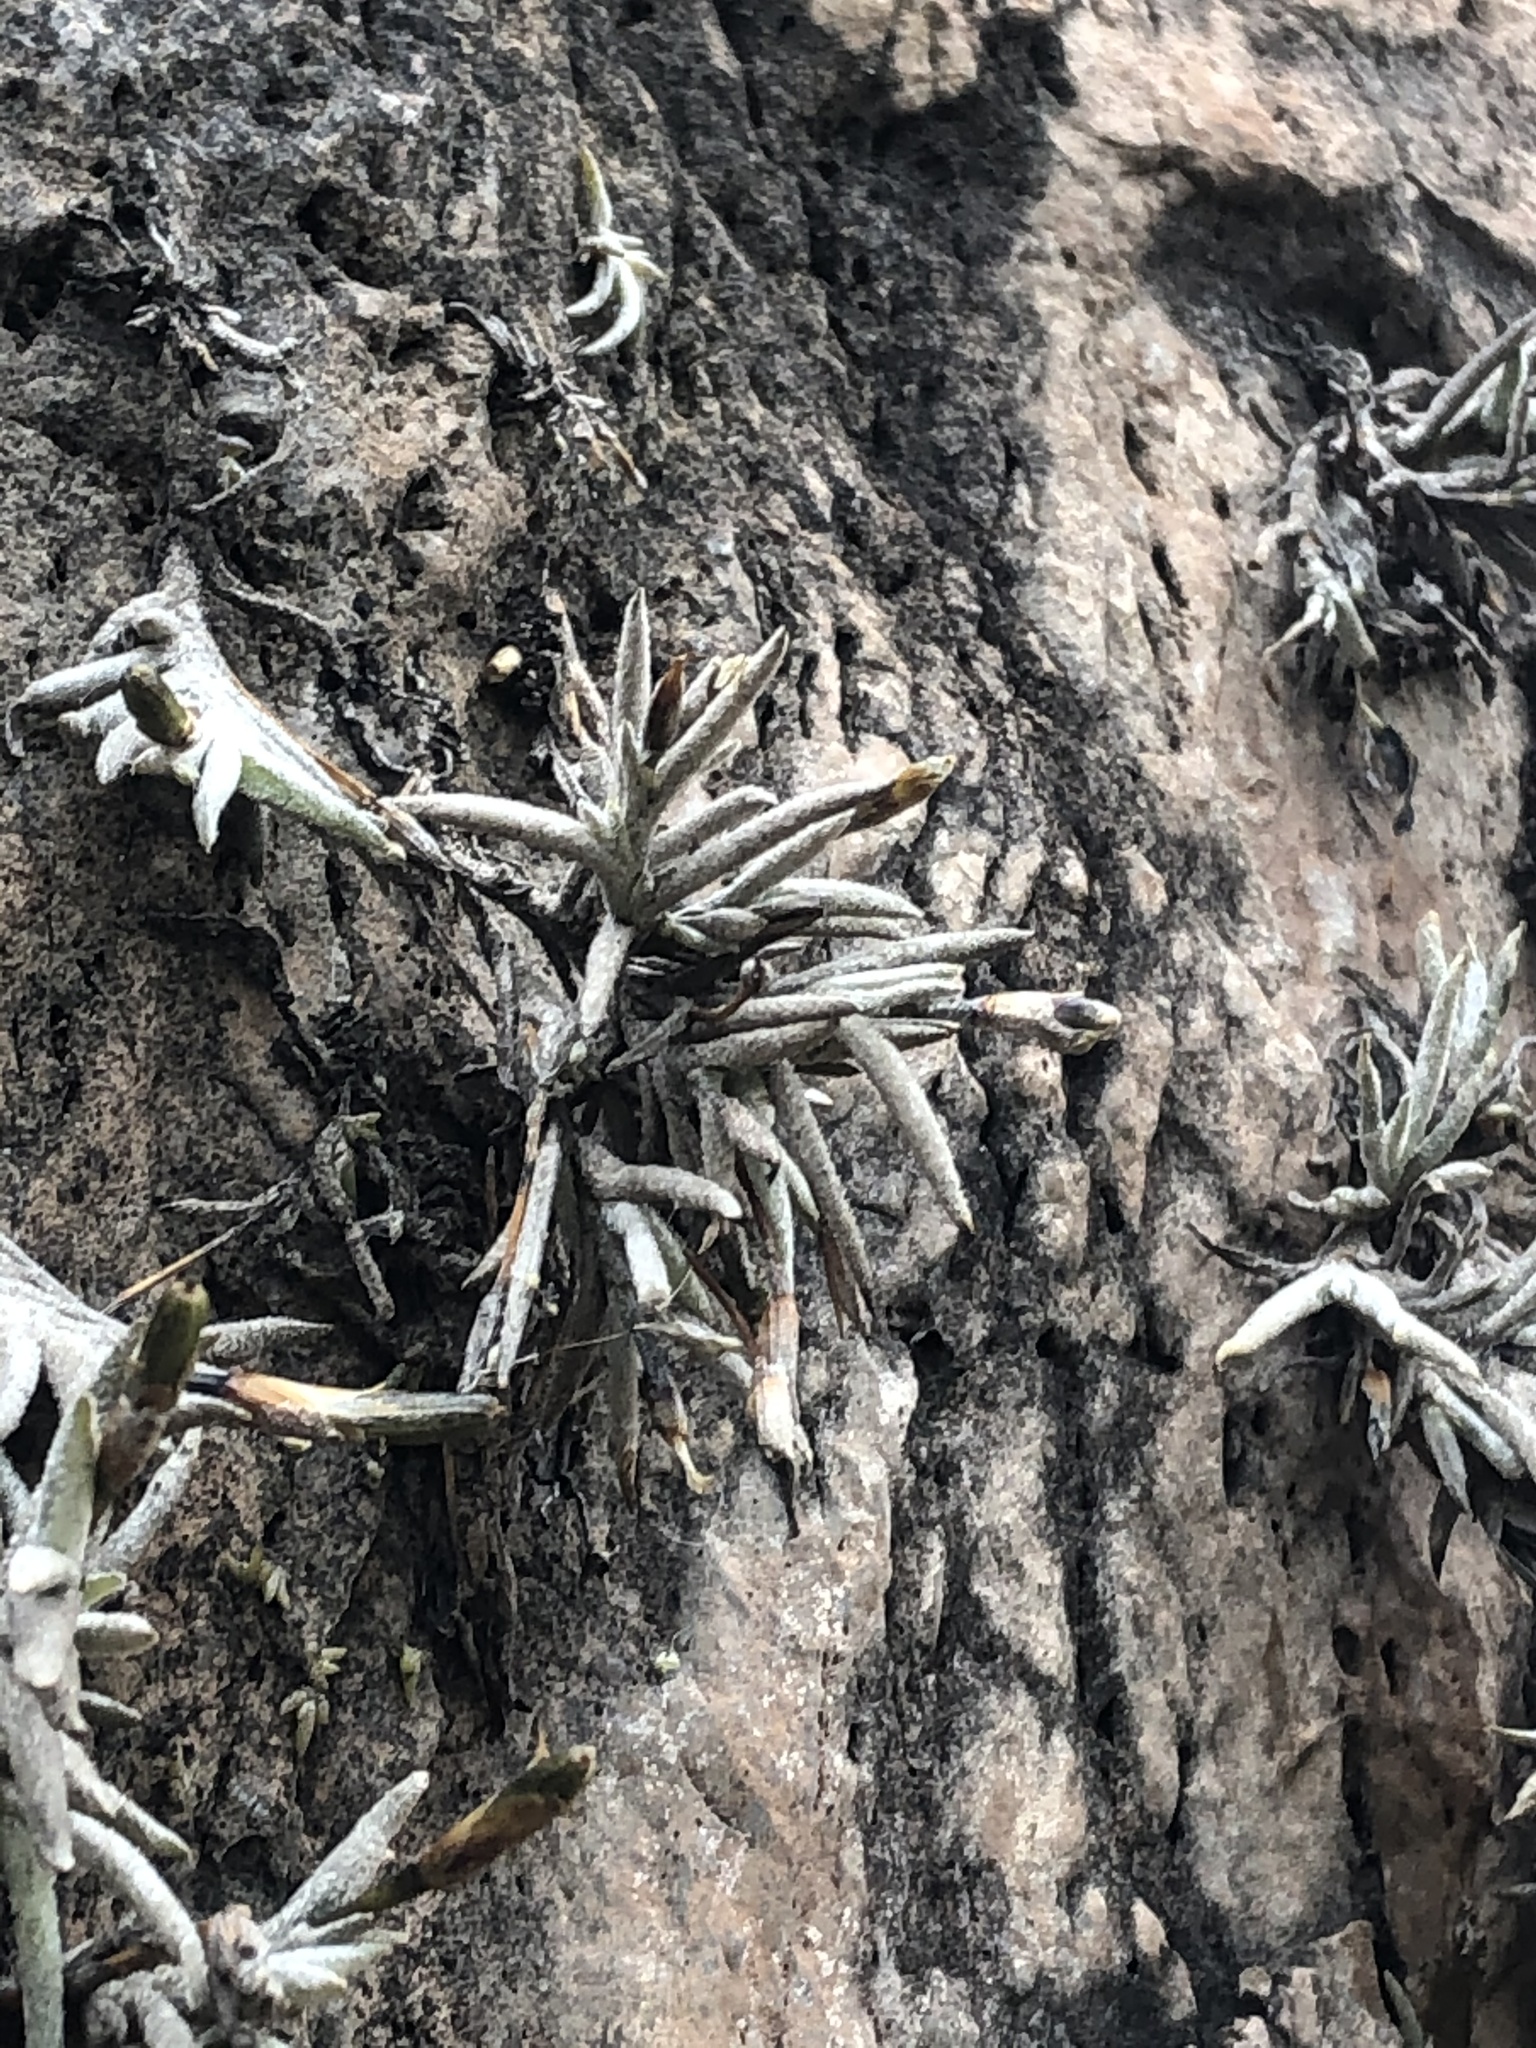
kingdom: Plantae
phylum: Tracheophyta
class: Liliopsida
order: Poales
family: Bromeliaceae
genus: Tillandsia
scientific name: Tillandsia virescens
